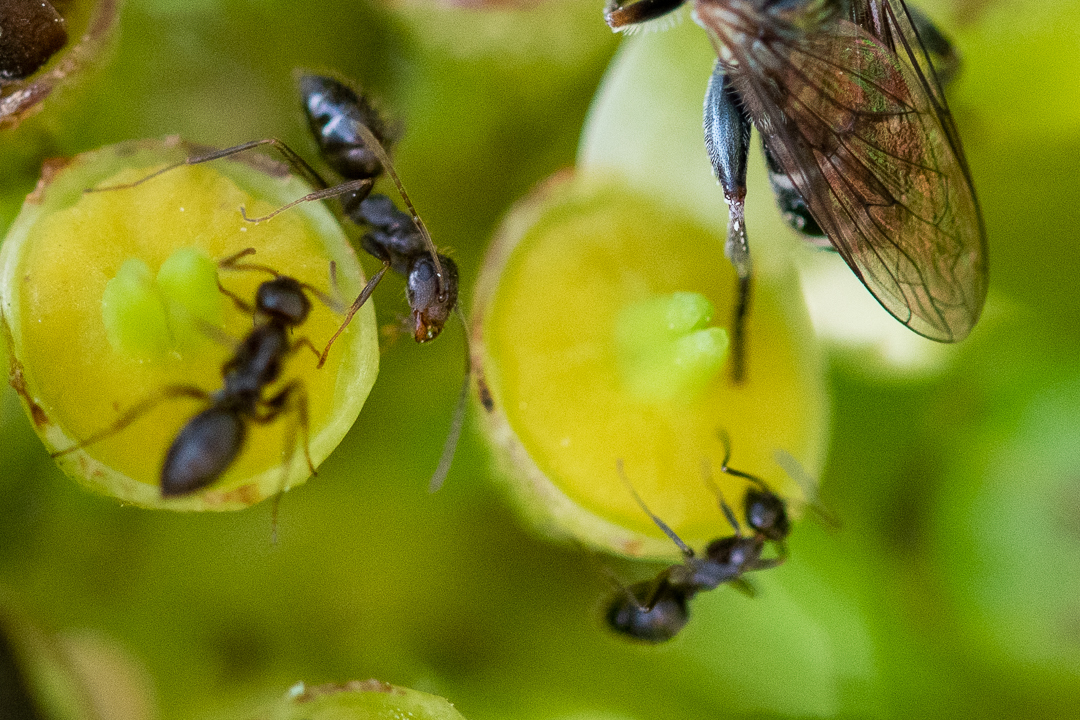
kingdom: Animalia
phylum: Arthropoda
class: Insecta
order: Hymenoptera
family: Formicidae
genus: Anoplolepis
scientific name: Anoplolepis steingroeveri
